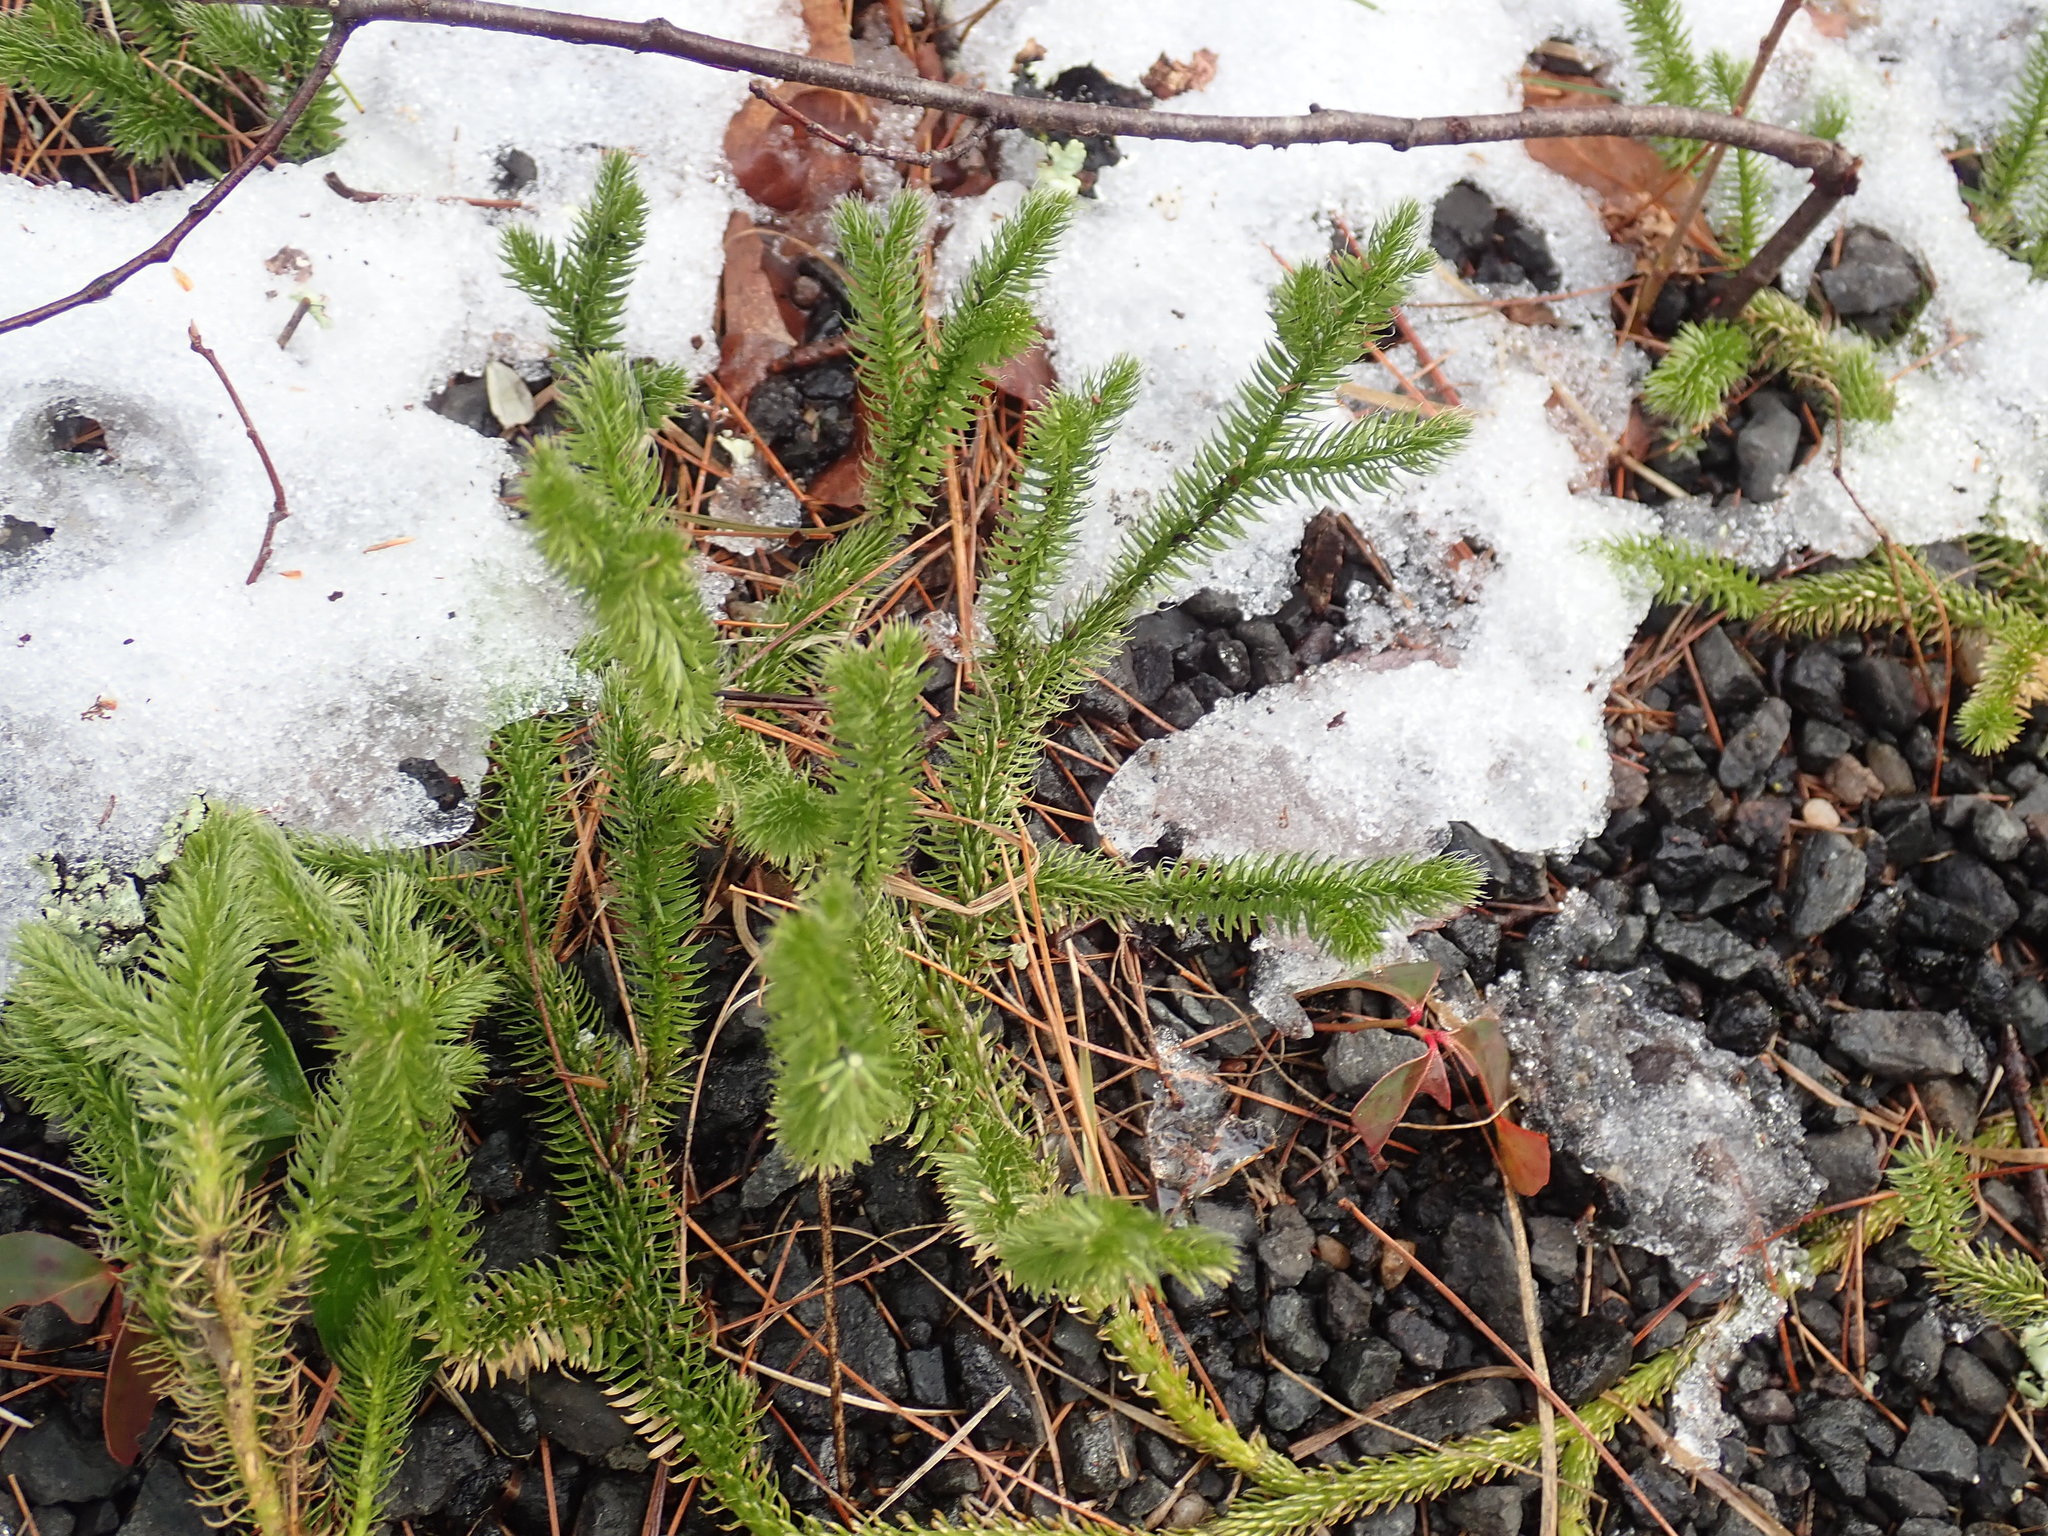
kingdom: Plantae
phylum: Tracheophyta
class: Lycopodiopsida
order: Lycopodiales
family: Lycopodiaceae
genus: Lycopodium
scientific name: Lycopodium clavatum
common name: Stag's-horn clubmoss
